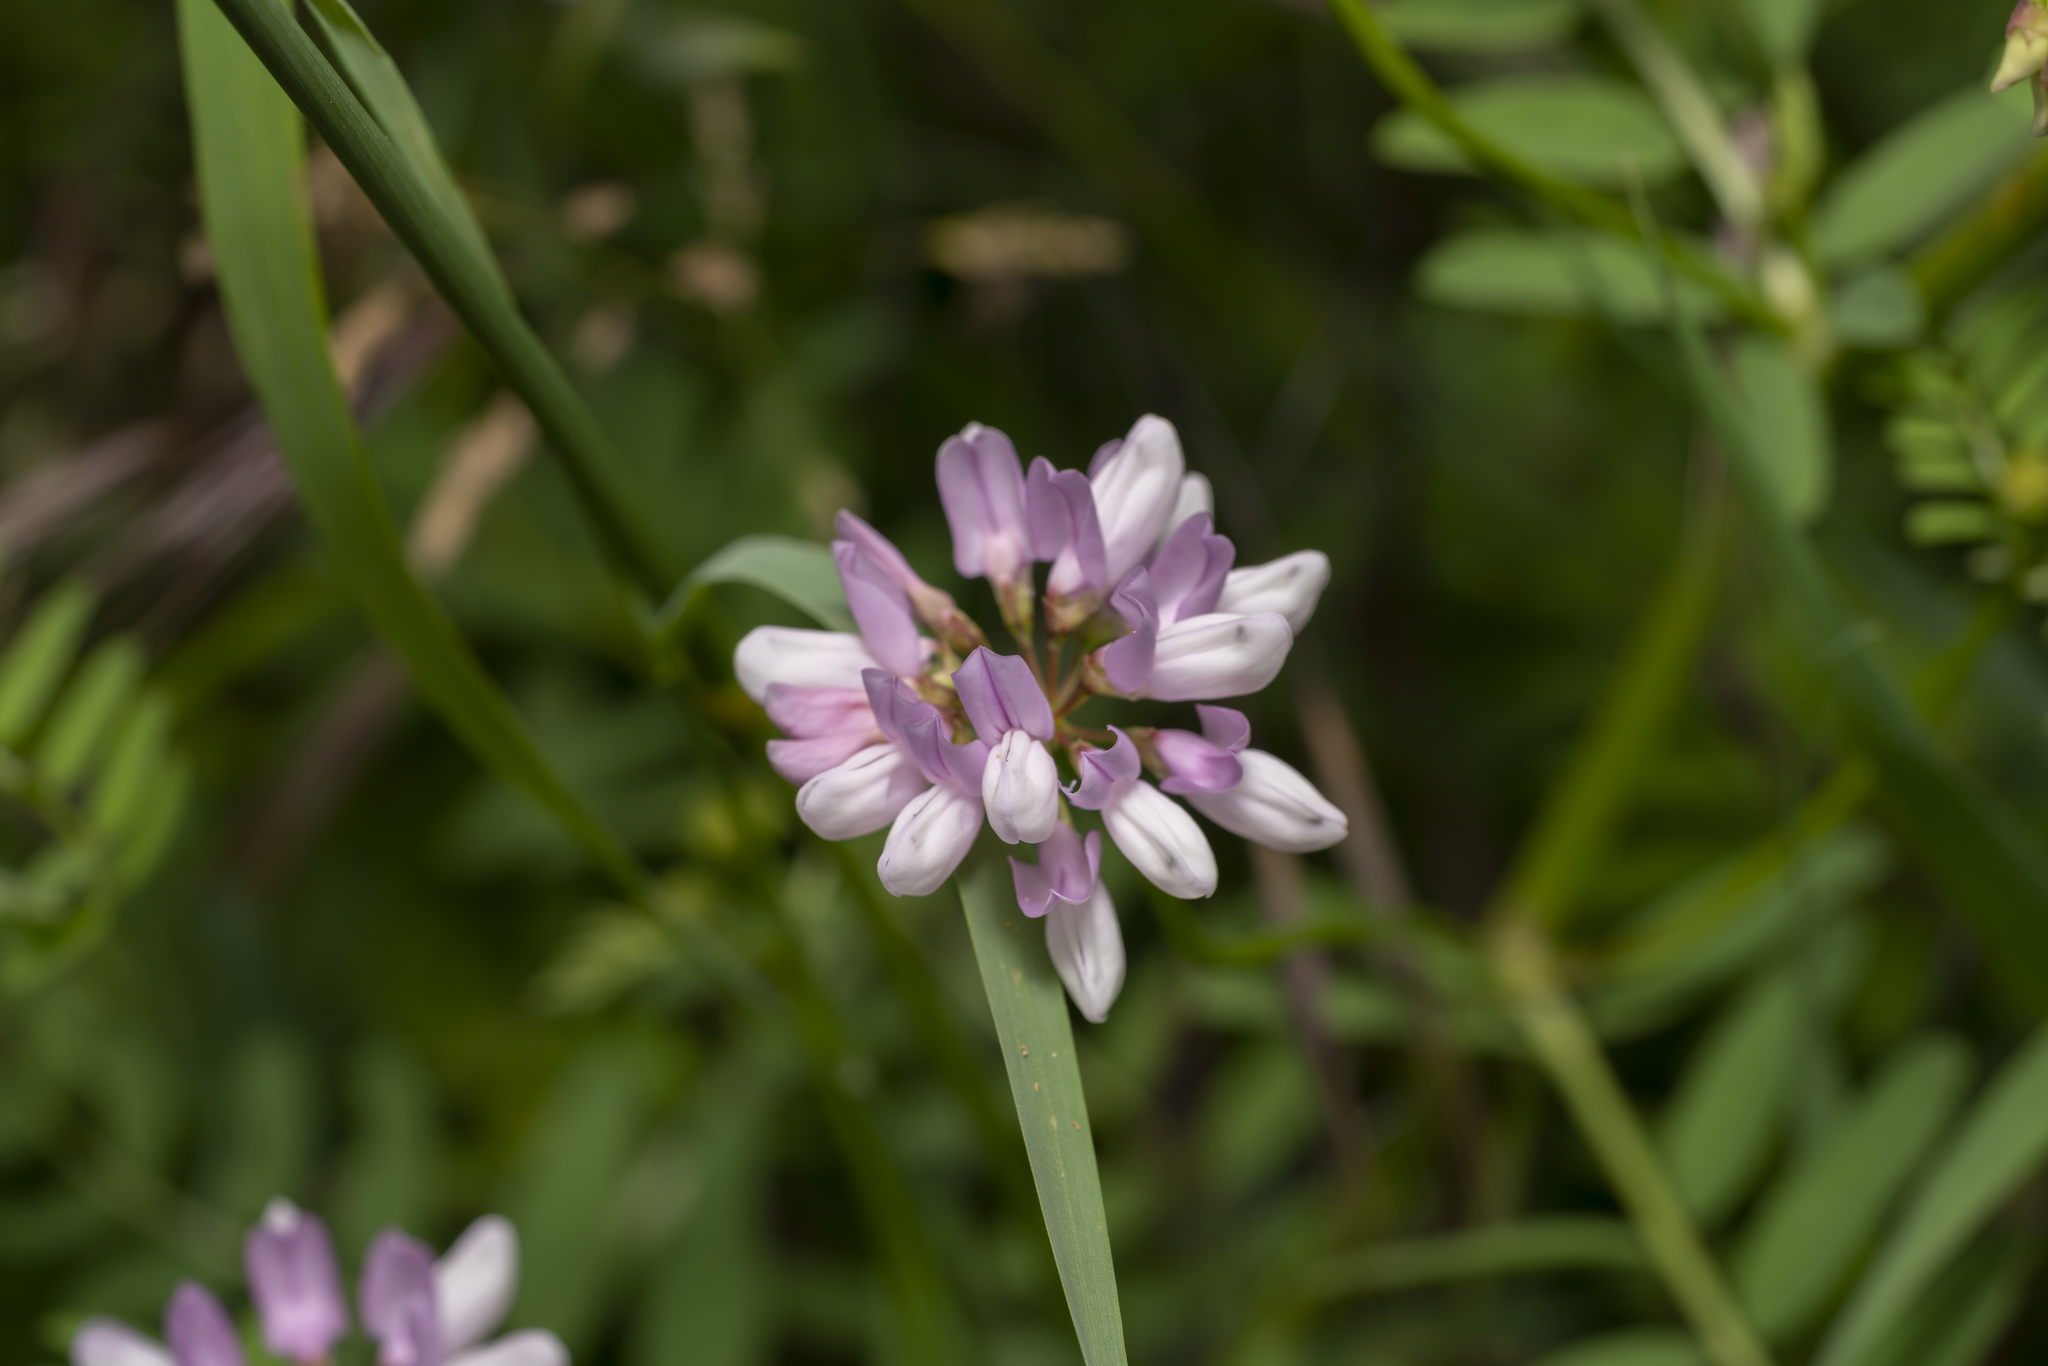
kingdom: Plantae
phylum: Tracheophyta
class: Magnoliopsida
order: Fabales
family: Fabaceae
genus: Coronilla
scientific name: Coronilla varia
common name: Crownvetch
